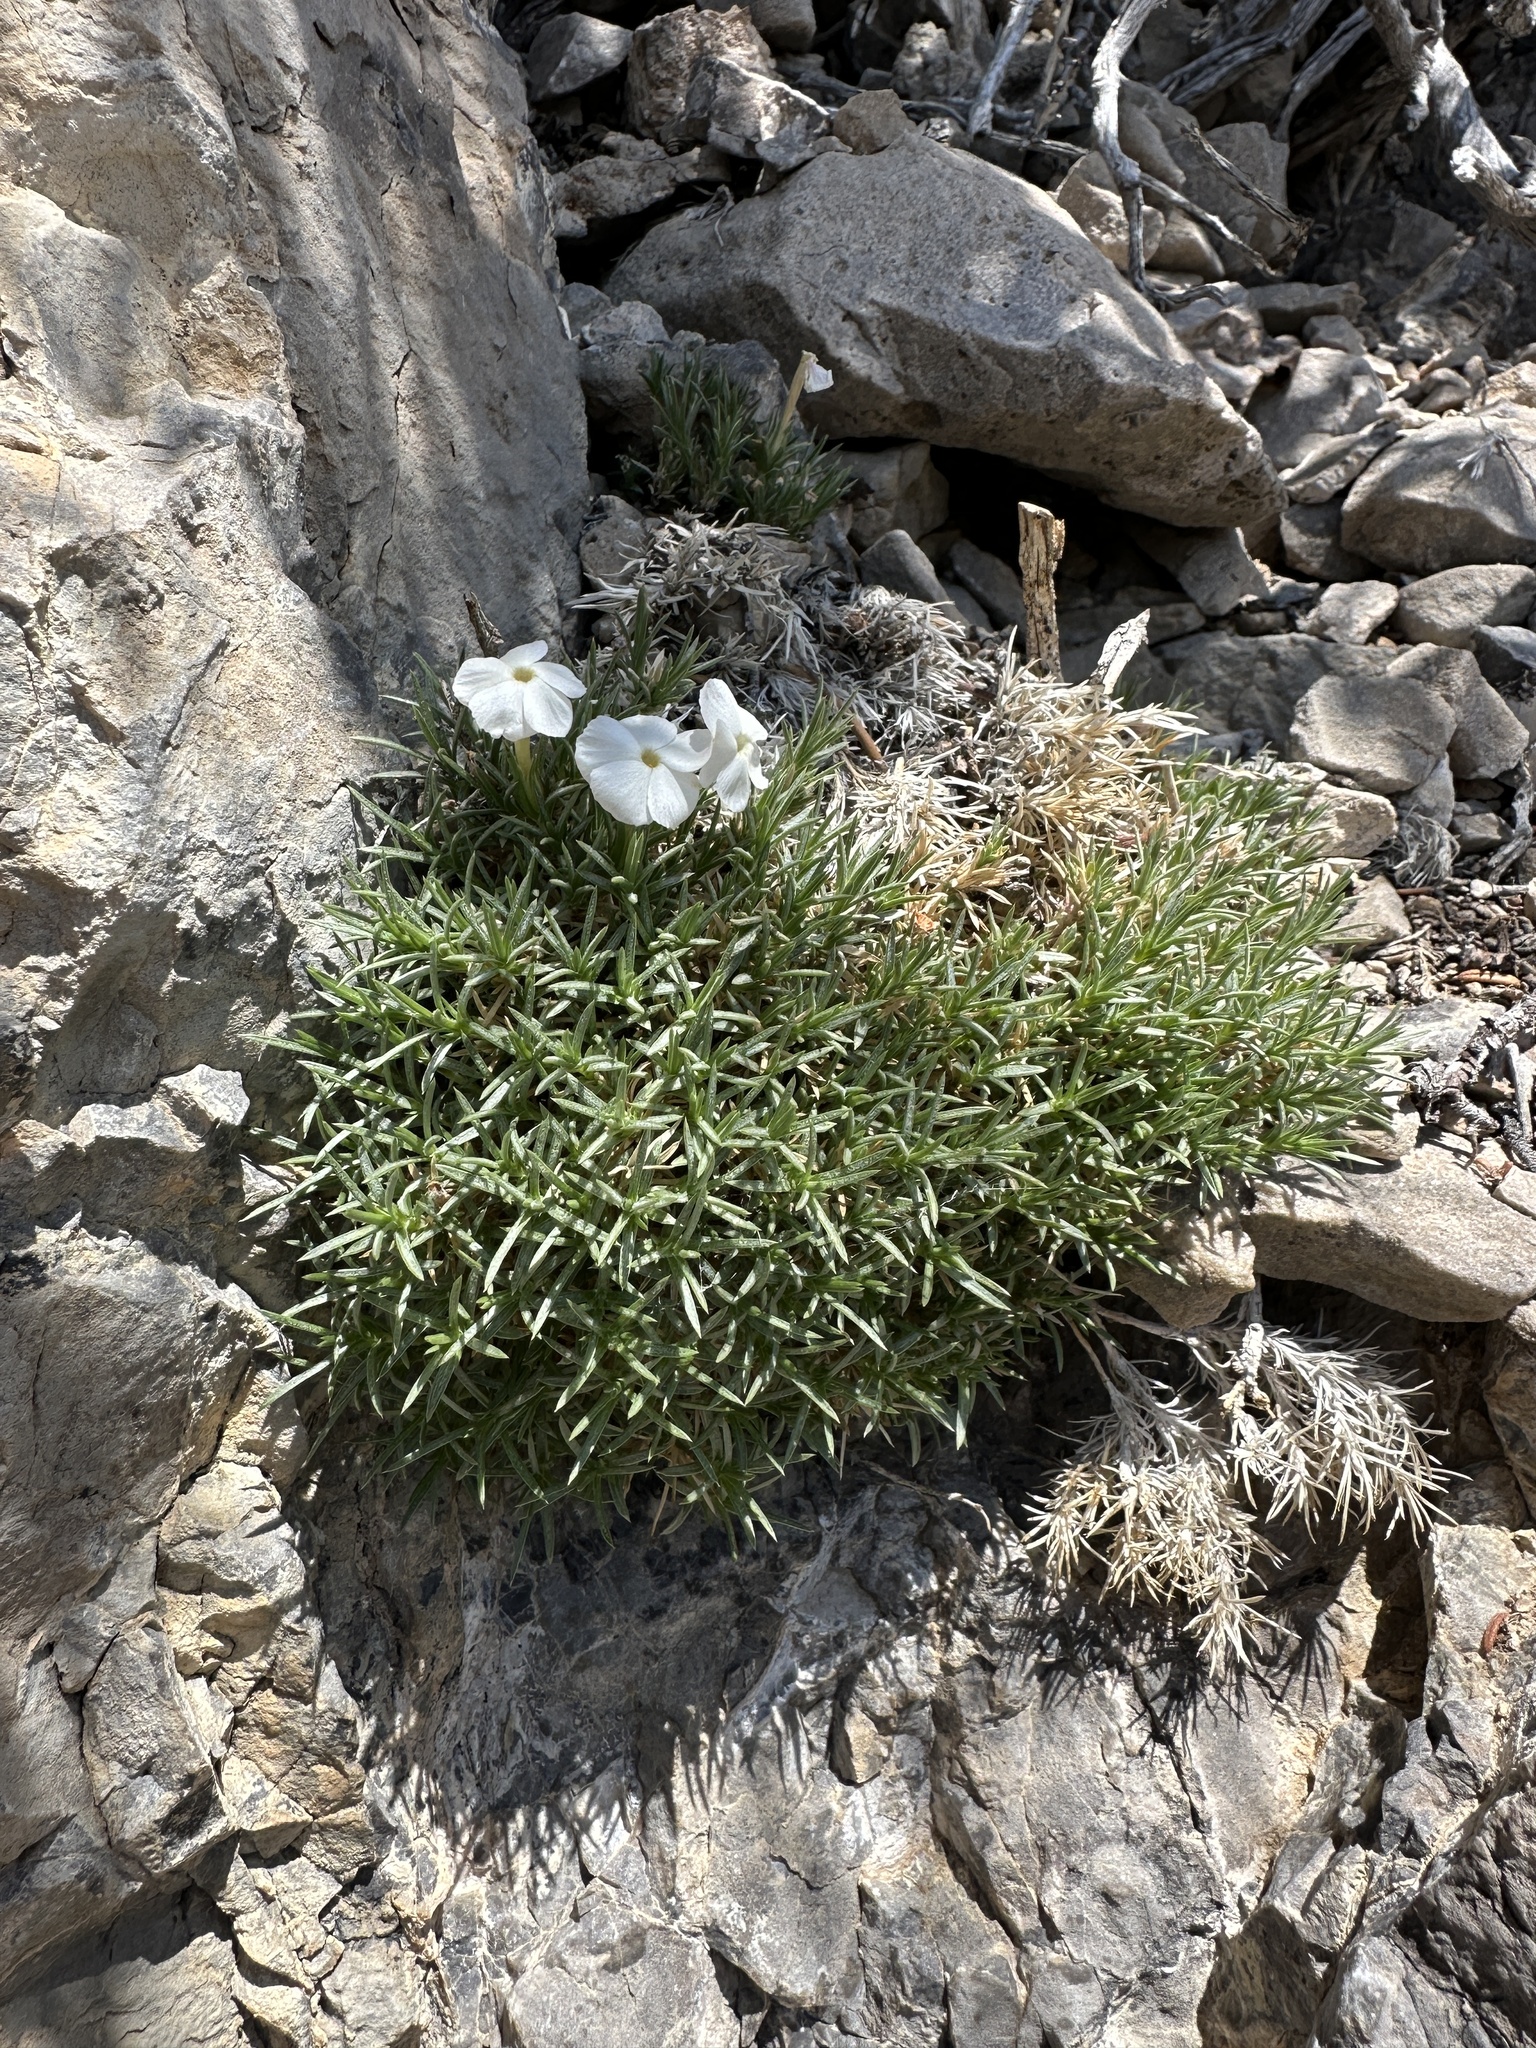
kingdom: Plantae
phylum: Tracheophyta
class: Magnoliopsida
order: Ericales
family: Polemoniaceae
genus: Phlox
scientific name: Phlox austromontana
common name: Desert phlox
